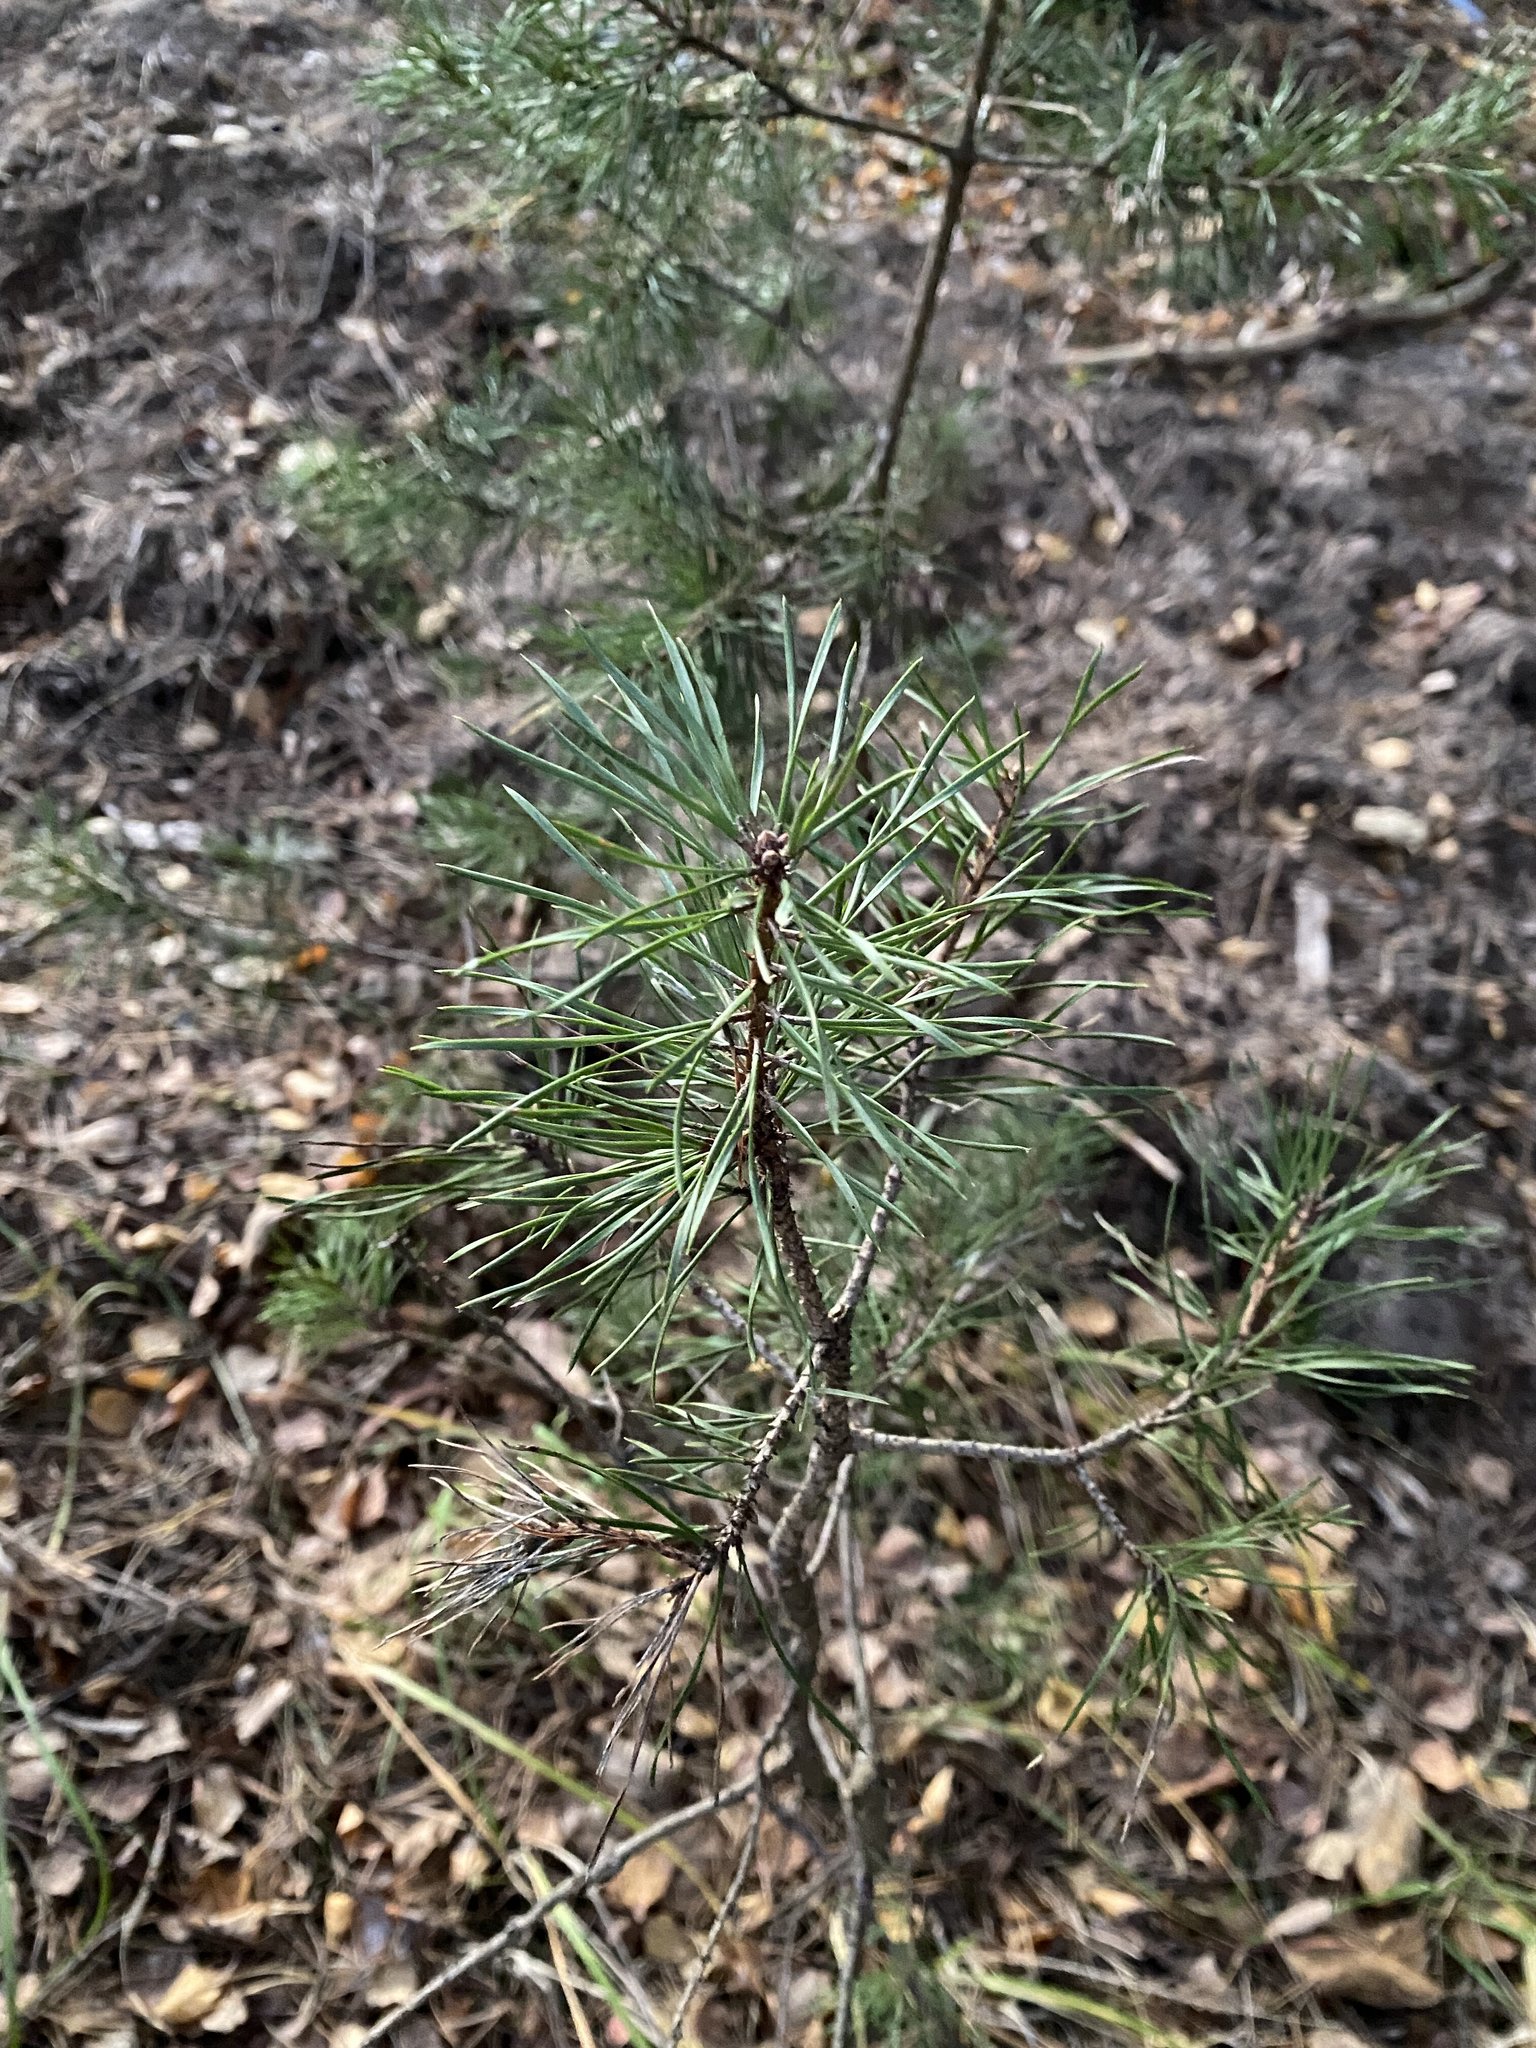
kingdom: Plantae
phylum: Tracheophyta
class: Pinopsida
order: Pinales
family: Pinaceae
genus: Pinus
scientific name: Pinus sylvestris
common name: Scots pine
